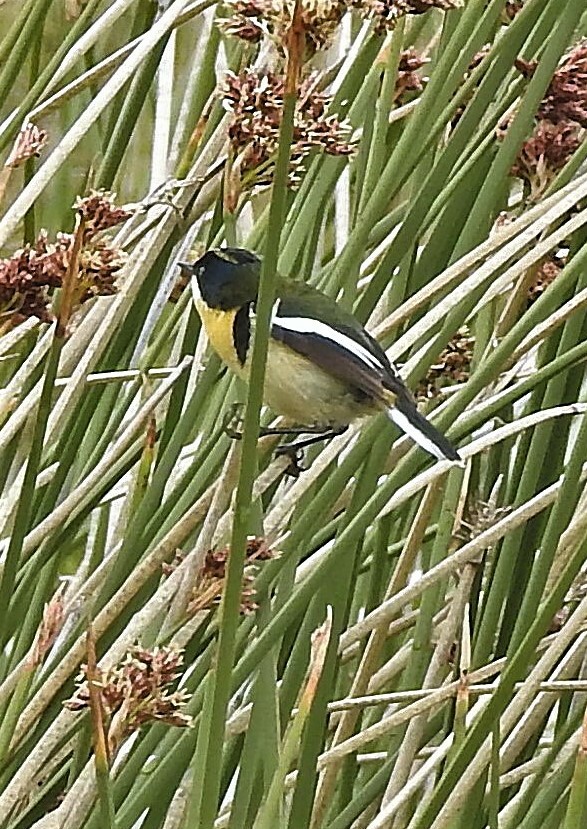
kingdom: Animalia
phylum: Chordata
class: Aves
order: Passeriformes
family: Tyrannidae
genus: Tachuris
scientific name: Tachuris rubrigastra
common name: Many-colored rush tyrant
